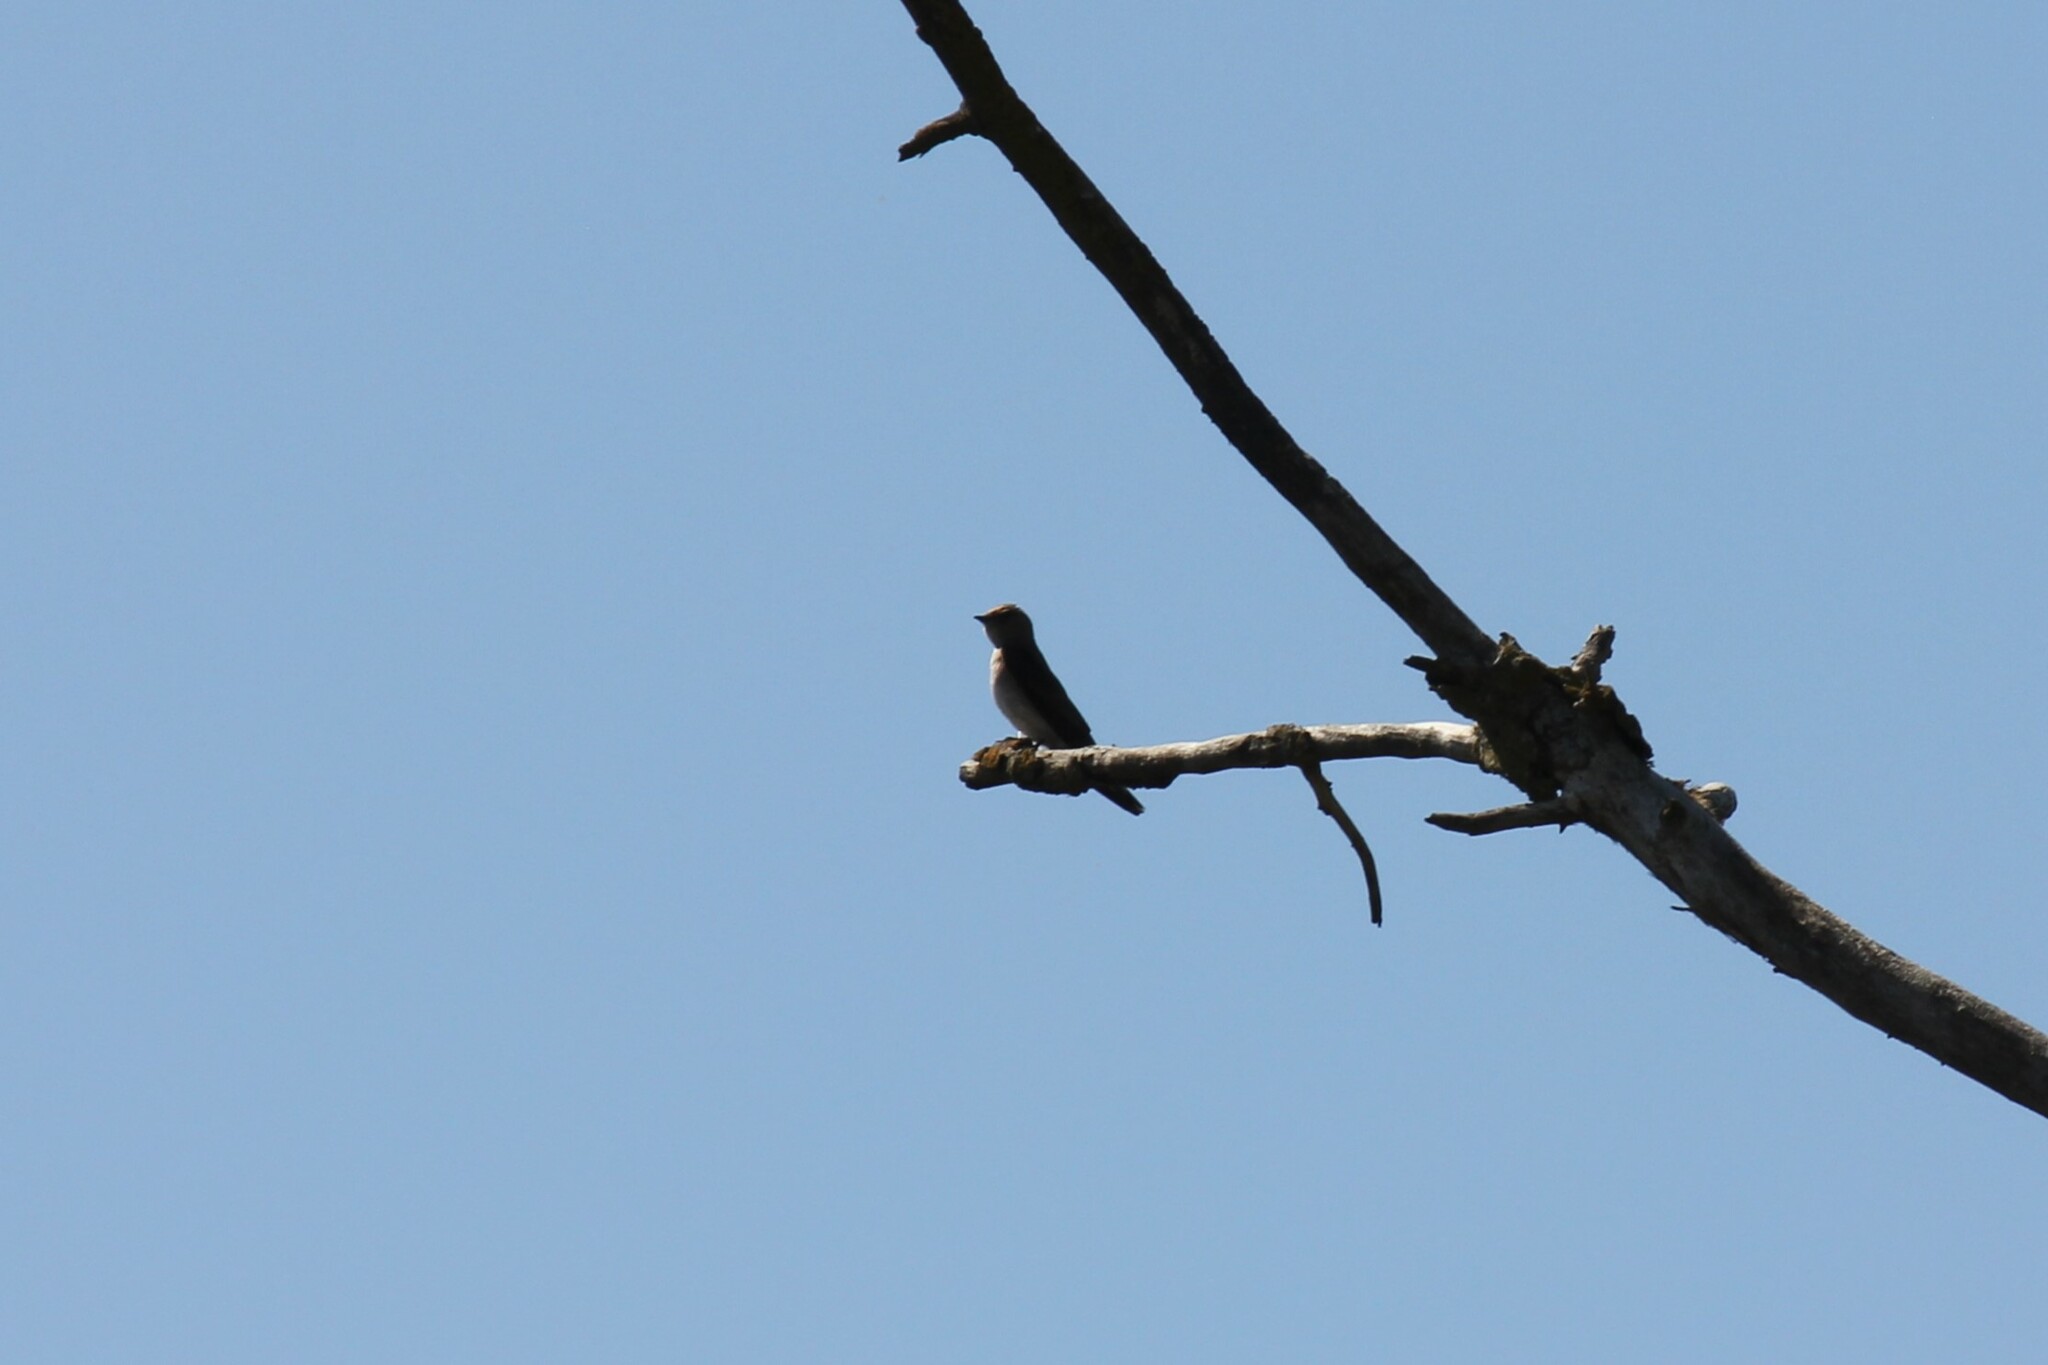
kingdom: Animalia
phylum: Chordata
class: Aves
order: Passeriformes
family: Hirundinidae
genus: Stelgidopteryx
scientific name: Stelgidopteryx serripennis
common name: Northern rough-winged swallow
